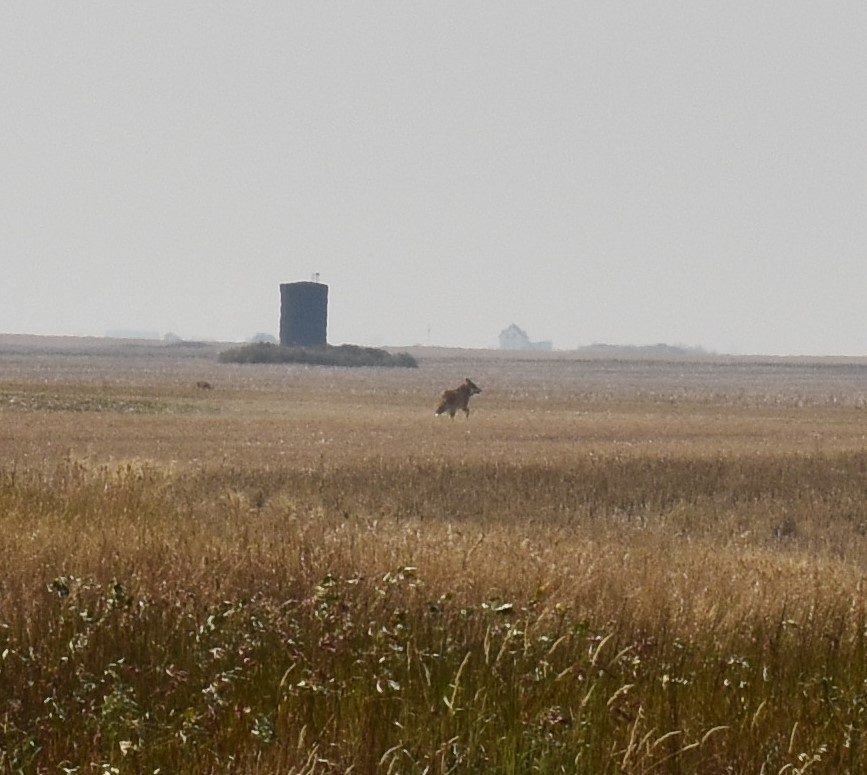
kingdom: Animalia
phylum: Chordata
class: Mammalia
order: Carnivora
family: Canidae
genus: Canis
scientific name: Canis latrans
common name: Coyote
